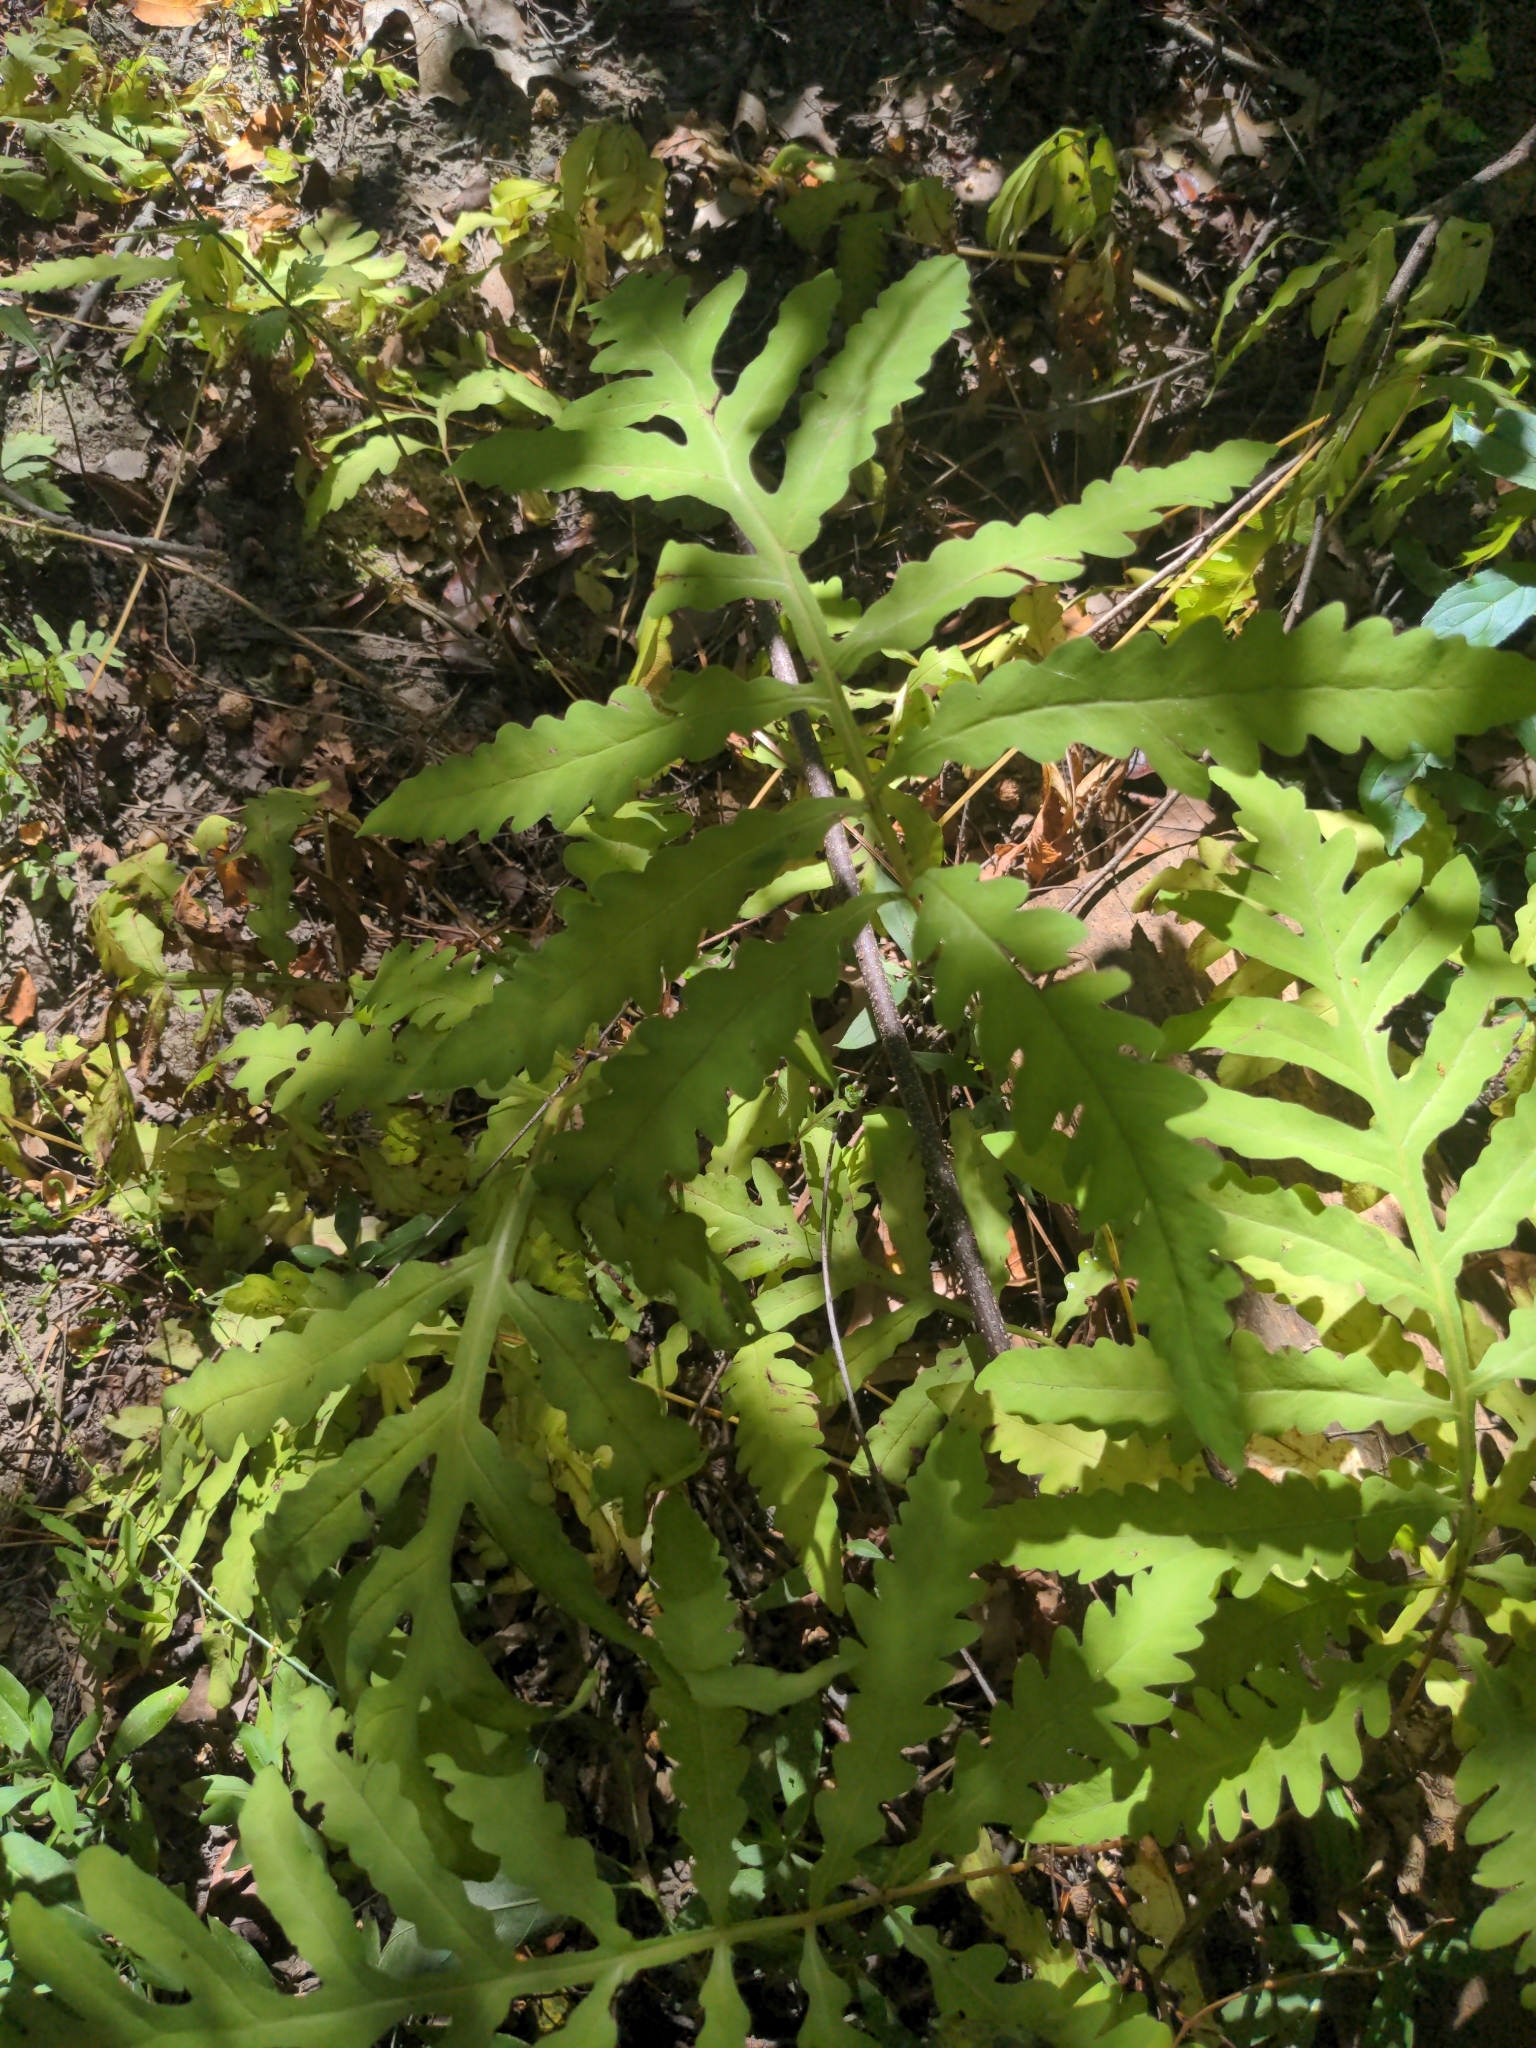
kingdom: Plantae
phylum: Tracheophyta
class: Polypodiopsida
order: Polypodiales
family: Onocleaceae
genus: Onoclea
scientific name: Onoclea sensibilis
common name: Sensitive fern
